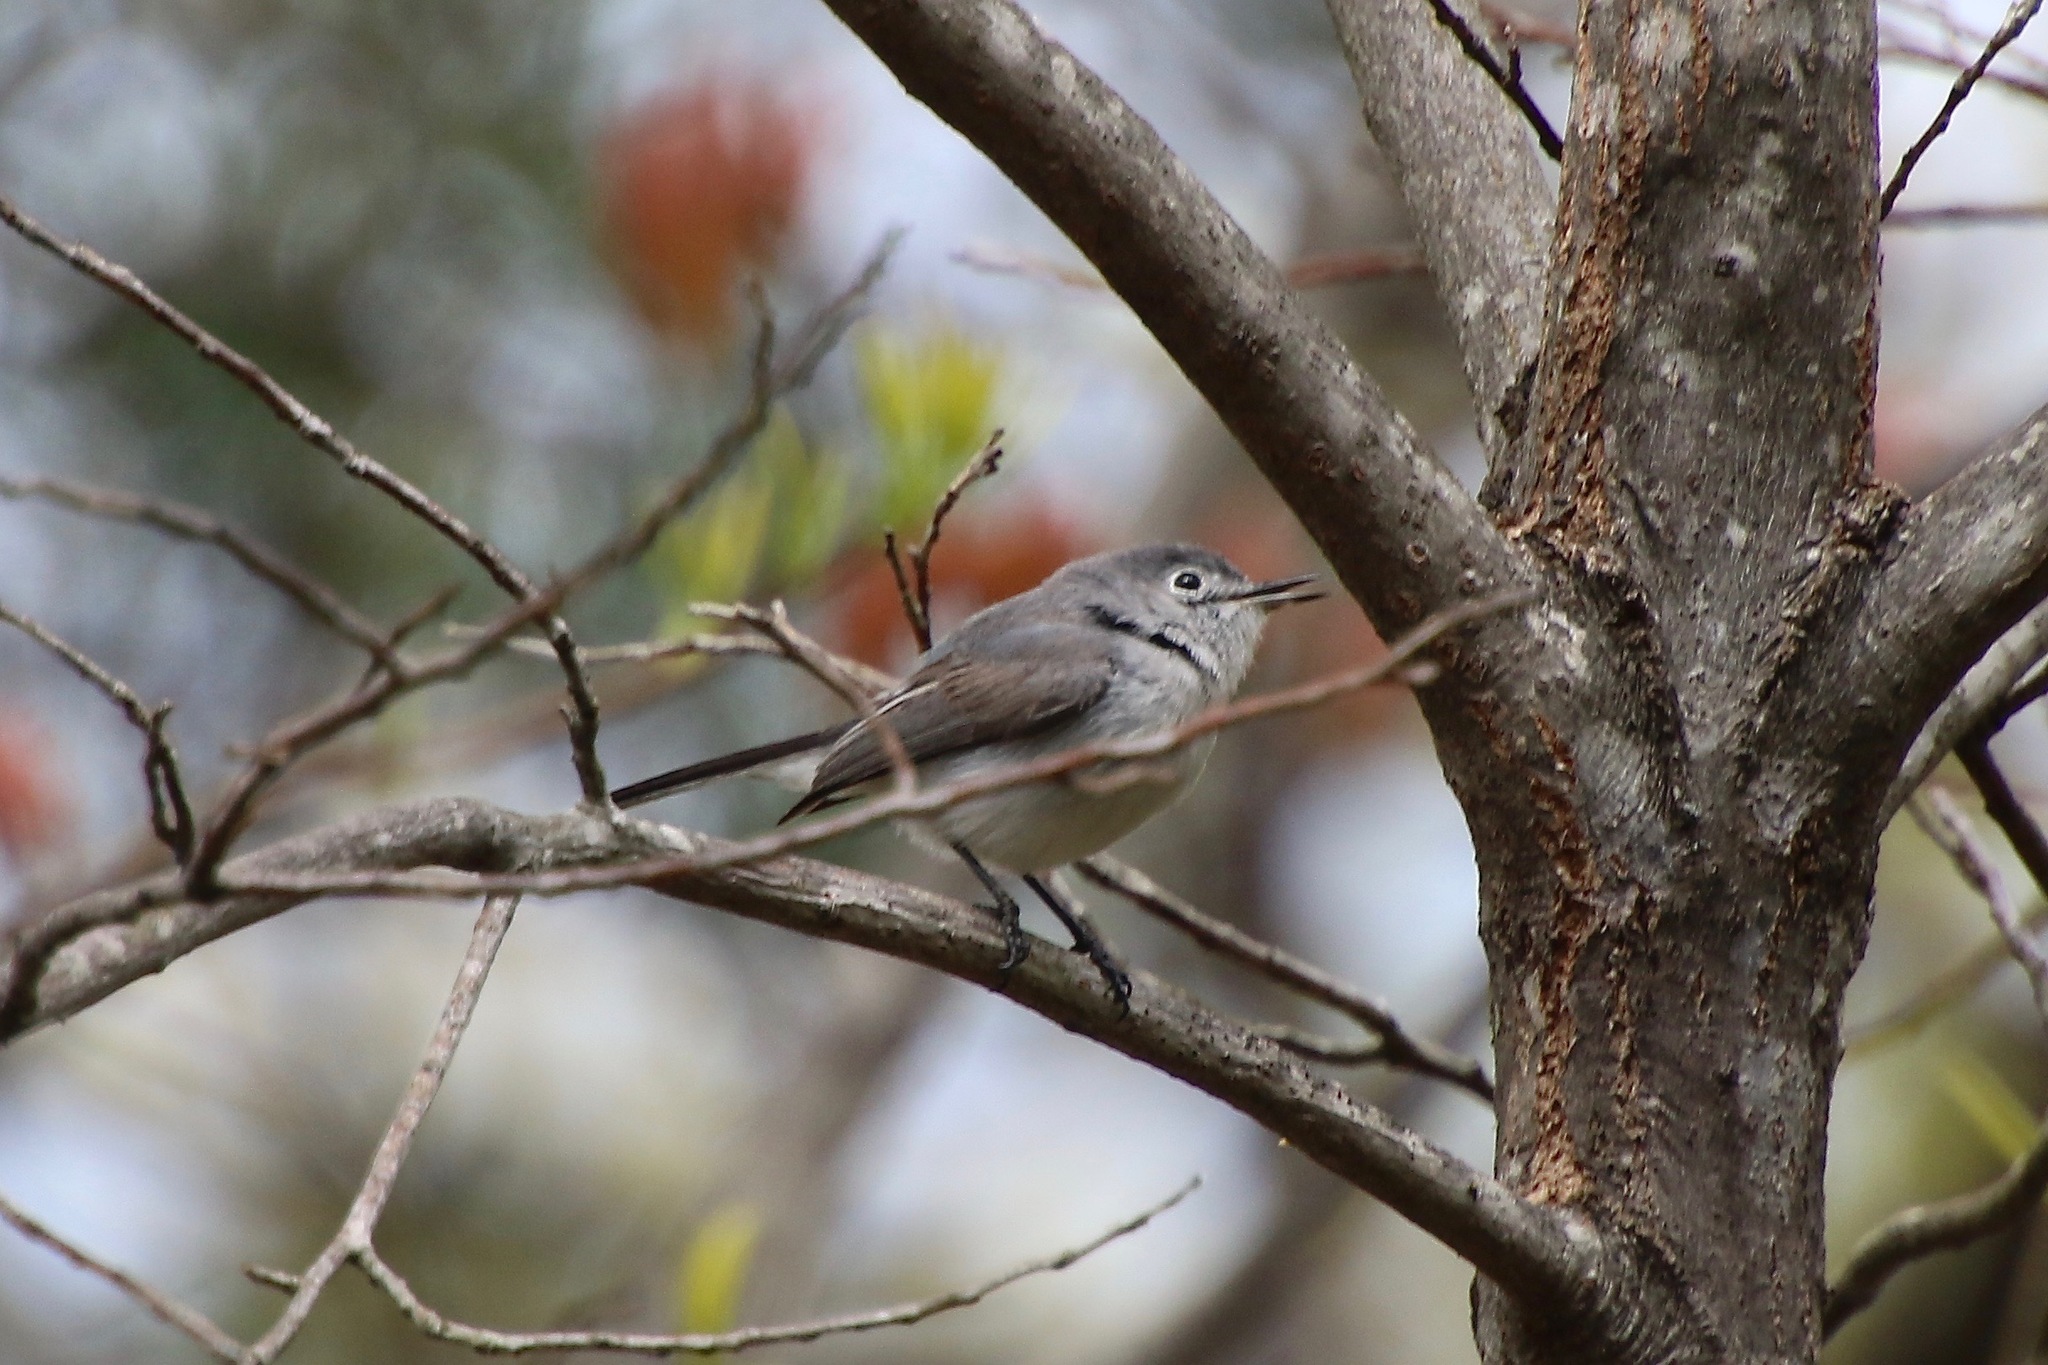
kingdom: Animalia
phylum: Chordata
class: Aves
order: Passeriformes
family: Polioptilidae
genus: Polioptila
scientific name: Polioptila caerulea
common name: Blue-gray gnatcatcher
